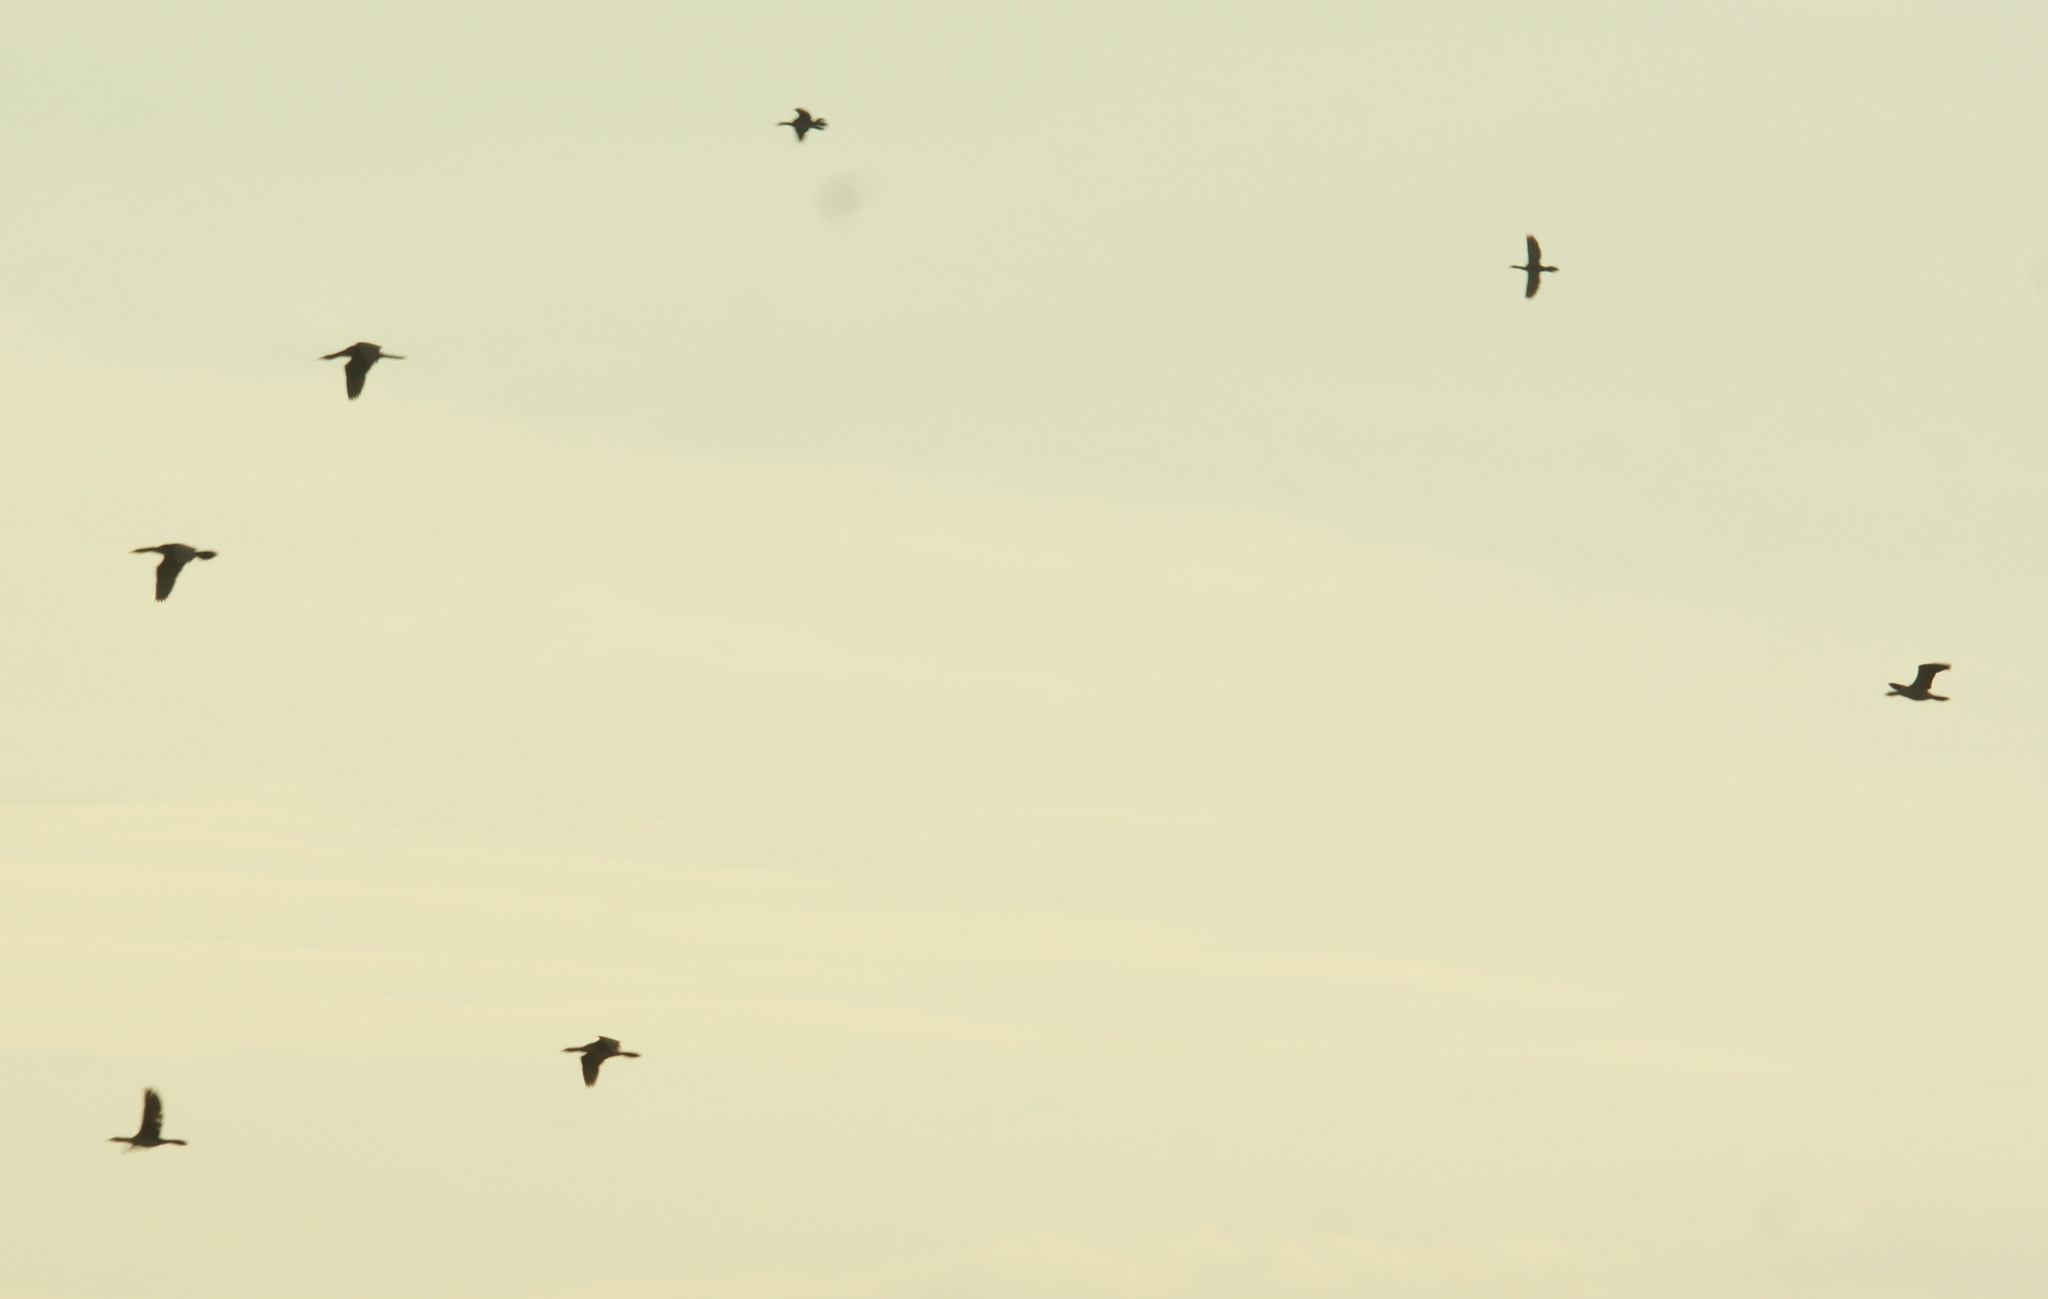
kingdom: Animalia
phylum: Chordata
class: Aves
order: Suliformes
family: Phalacrocoracidae
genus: Microcarbo
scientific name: Microcarbo pygmaeus
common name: Pygmy cormorant
